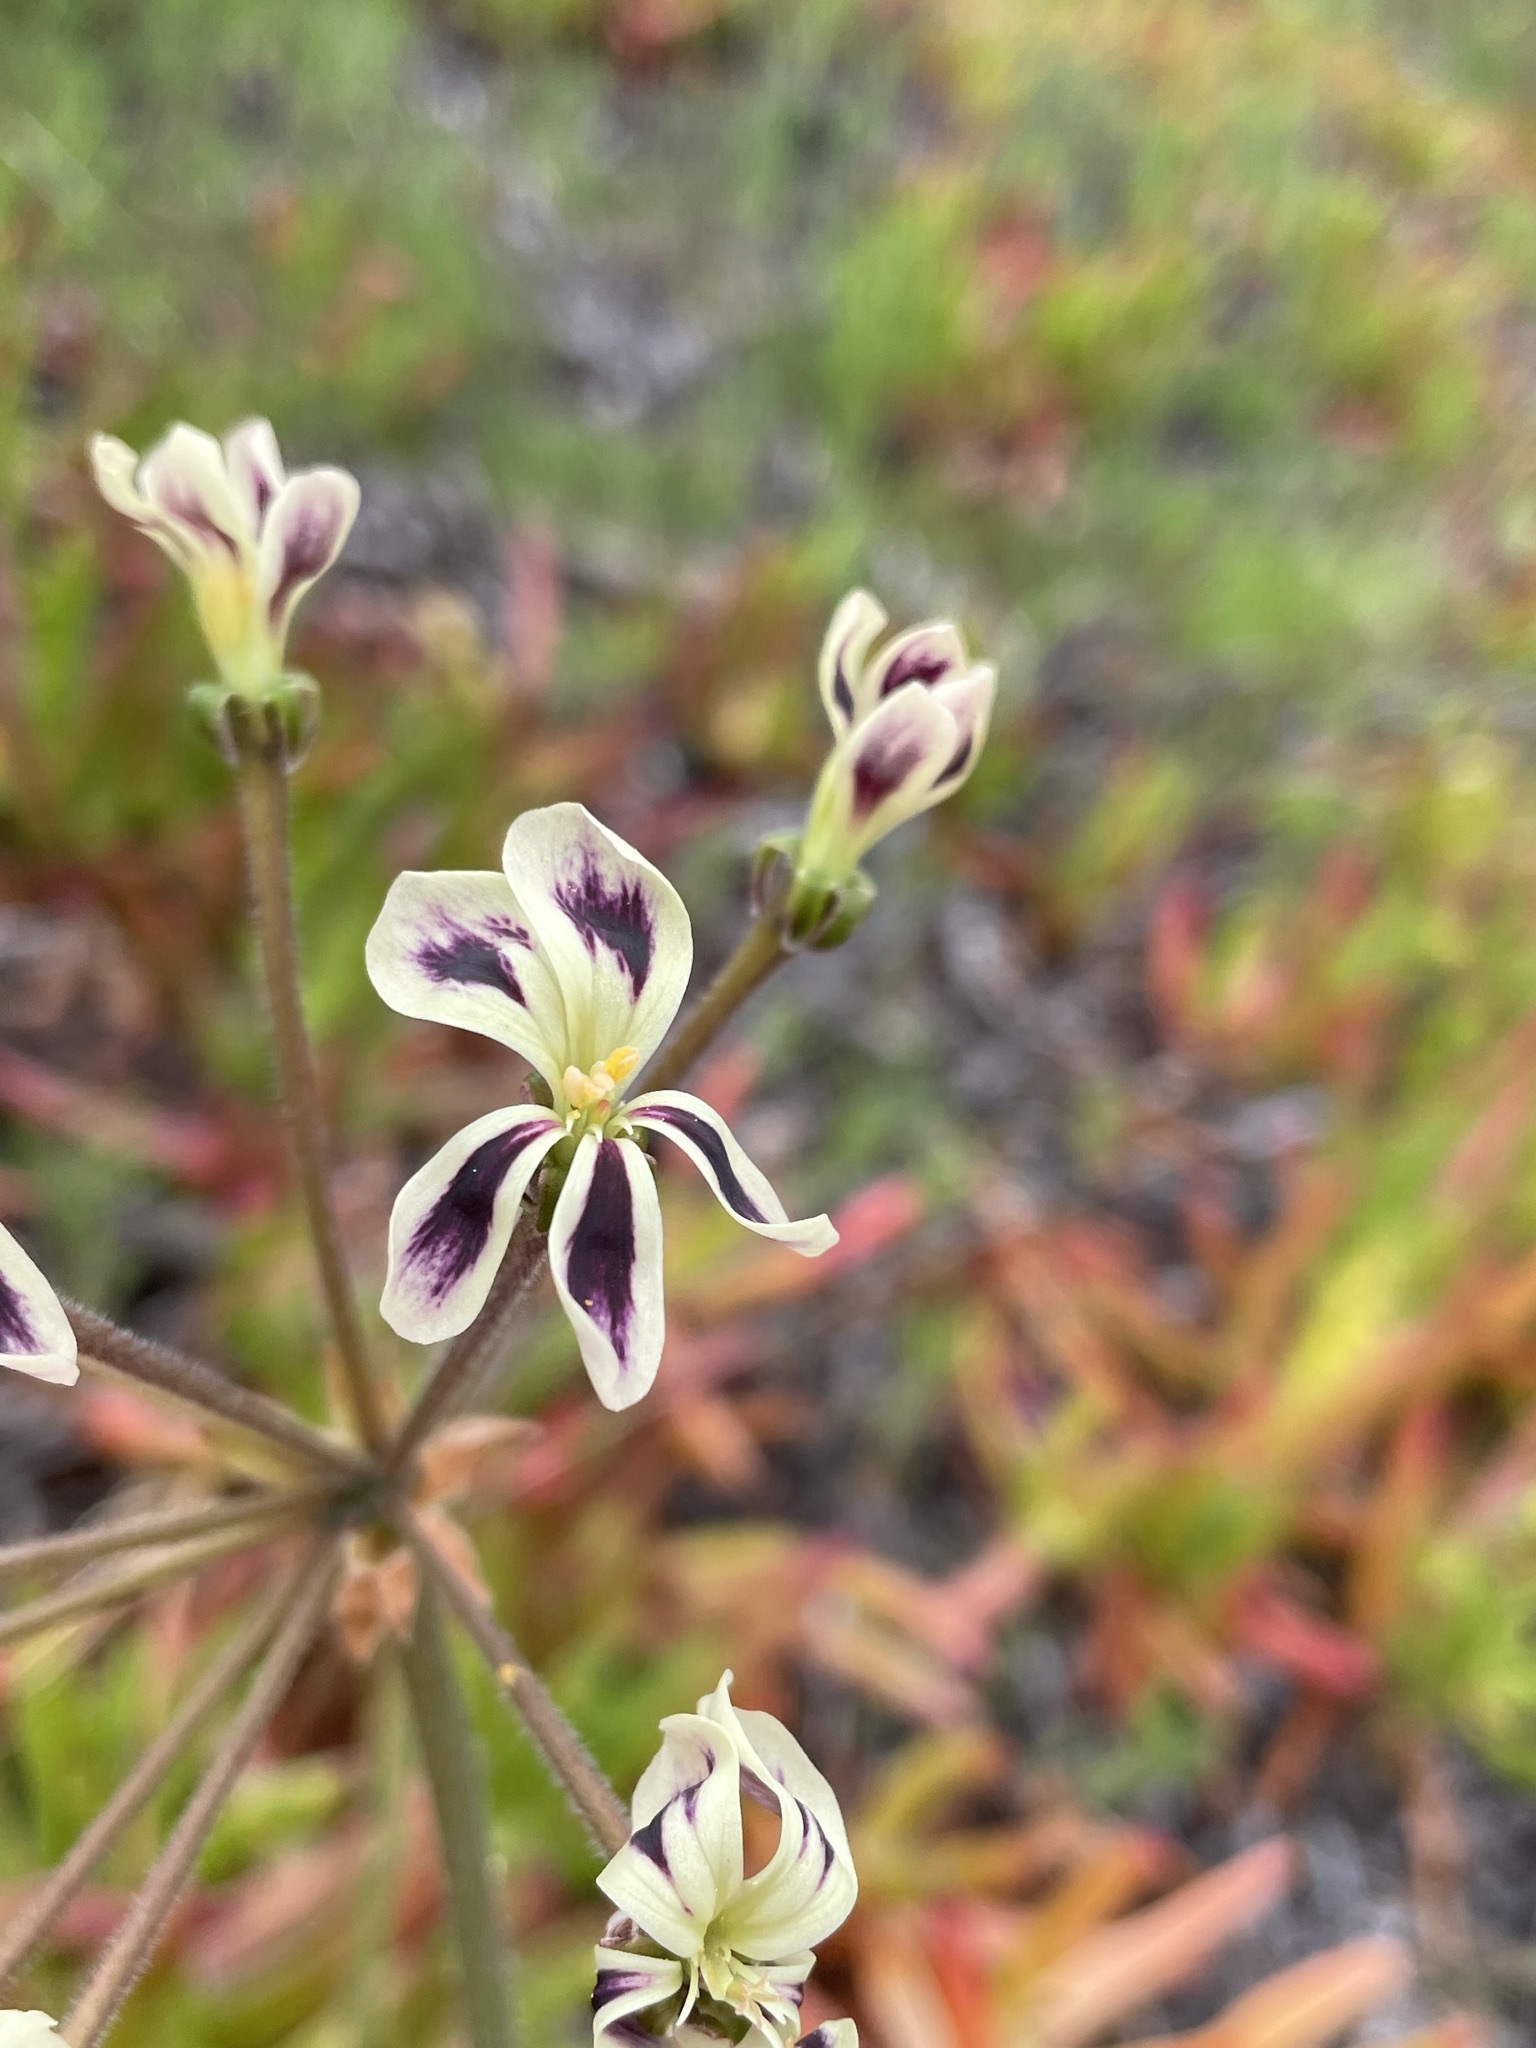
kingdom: Plantae
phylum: Tracheophyta
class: Magnoliopsida
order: Geraniales
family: Geraniaceae
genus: Pelargonium
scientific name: Pelargonium triste
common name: Night-scent pelargonium
